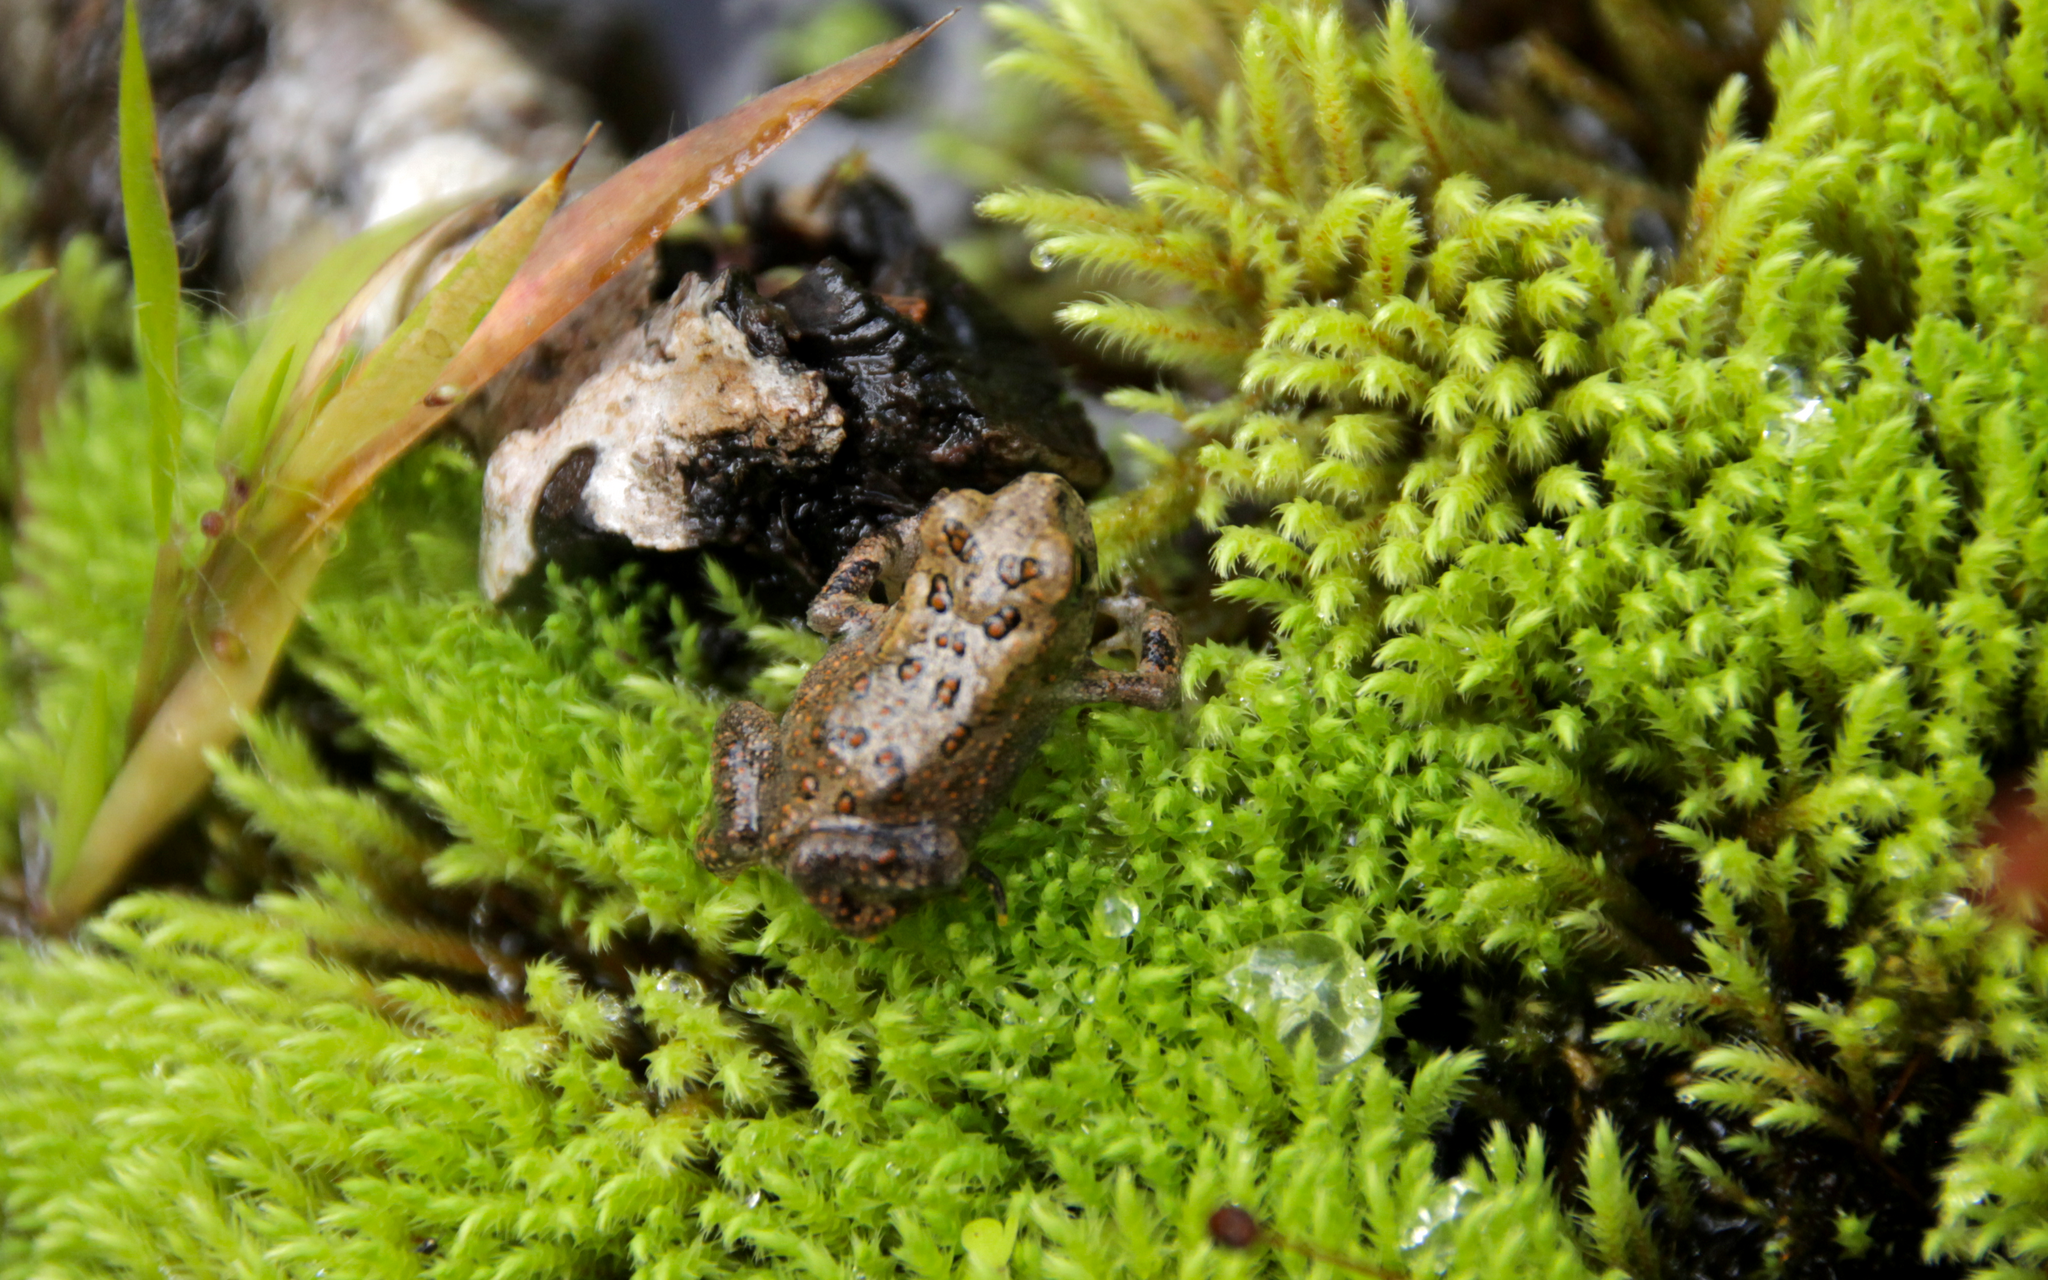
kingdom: Animalia
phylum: Chordata
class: Amphibia
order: Anura
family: Bufonidae
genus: Anaxyrus
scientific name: Anaxyrus americanus
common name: American toad
